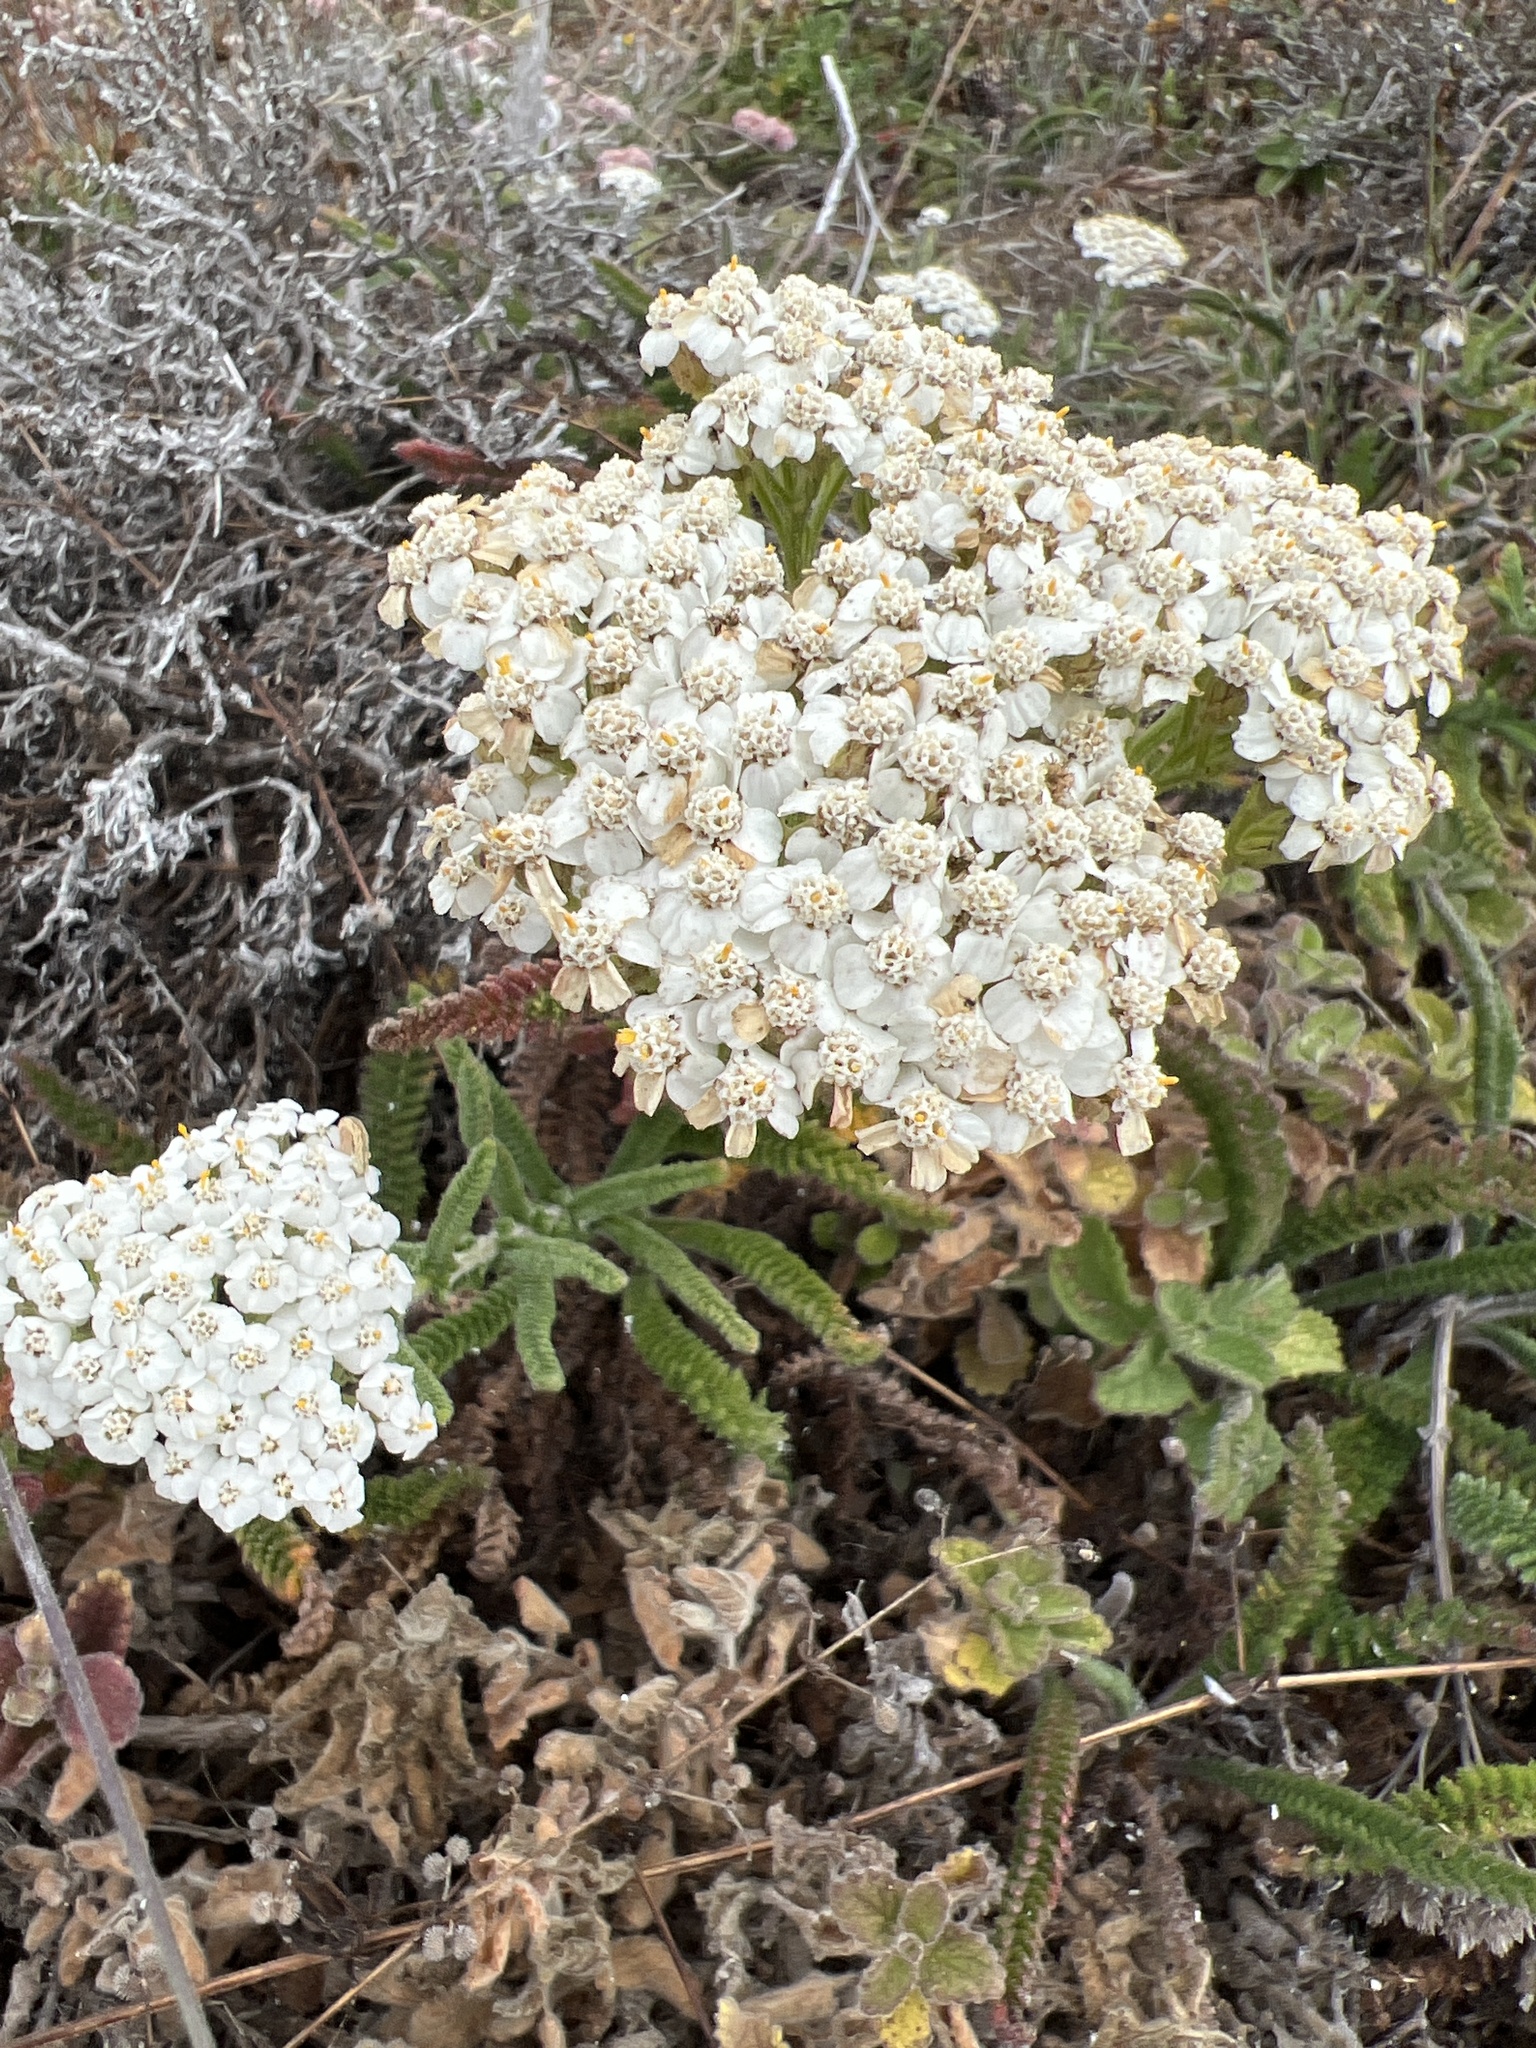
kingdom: Plantae
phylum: Tracheophyta
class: Magnoliopsida
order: Asterales
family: Asteraceae
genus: Achillea
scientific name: Achillea millefolium
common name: Yarrow
